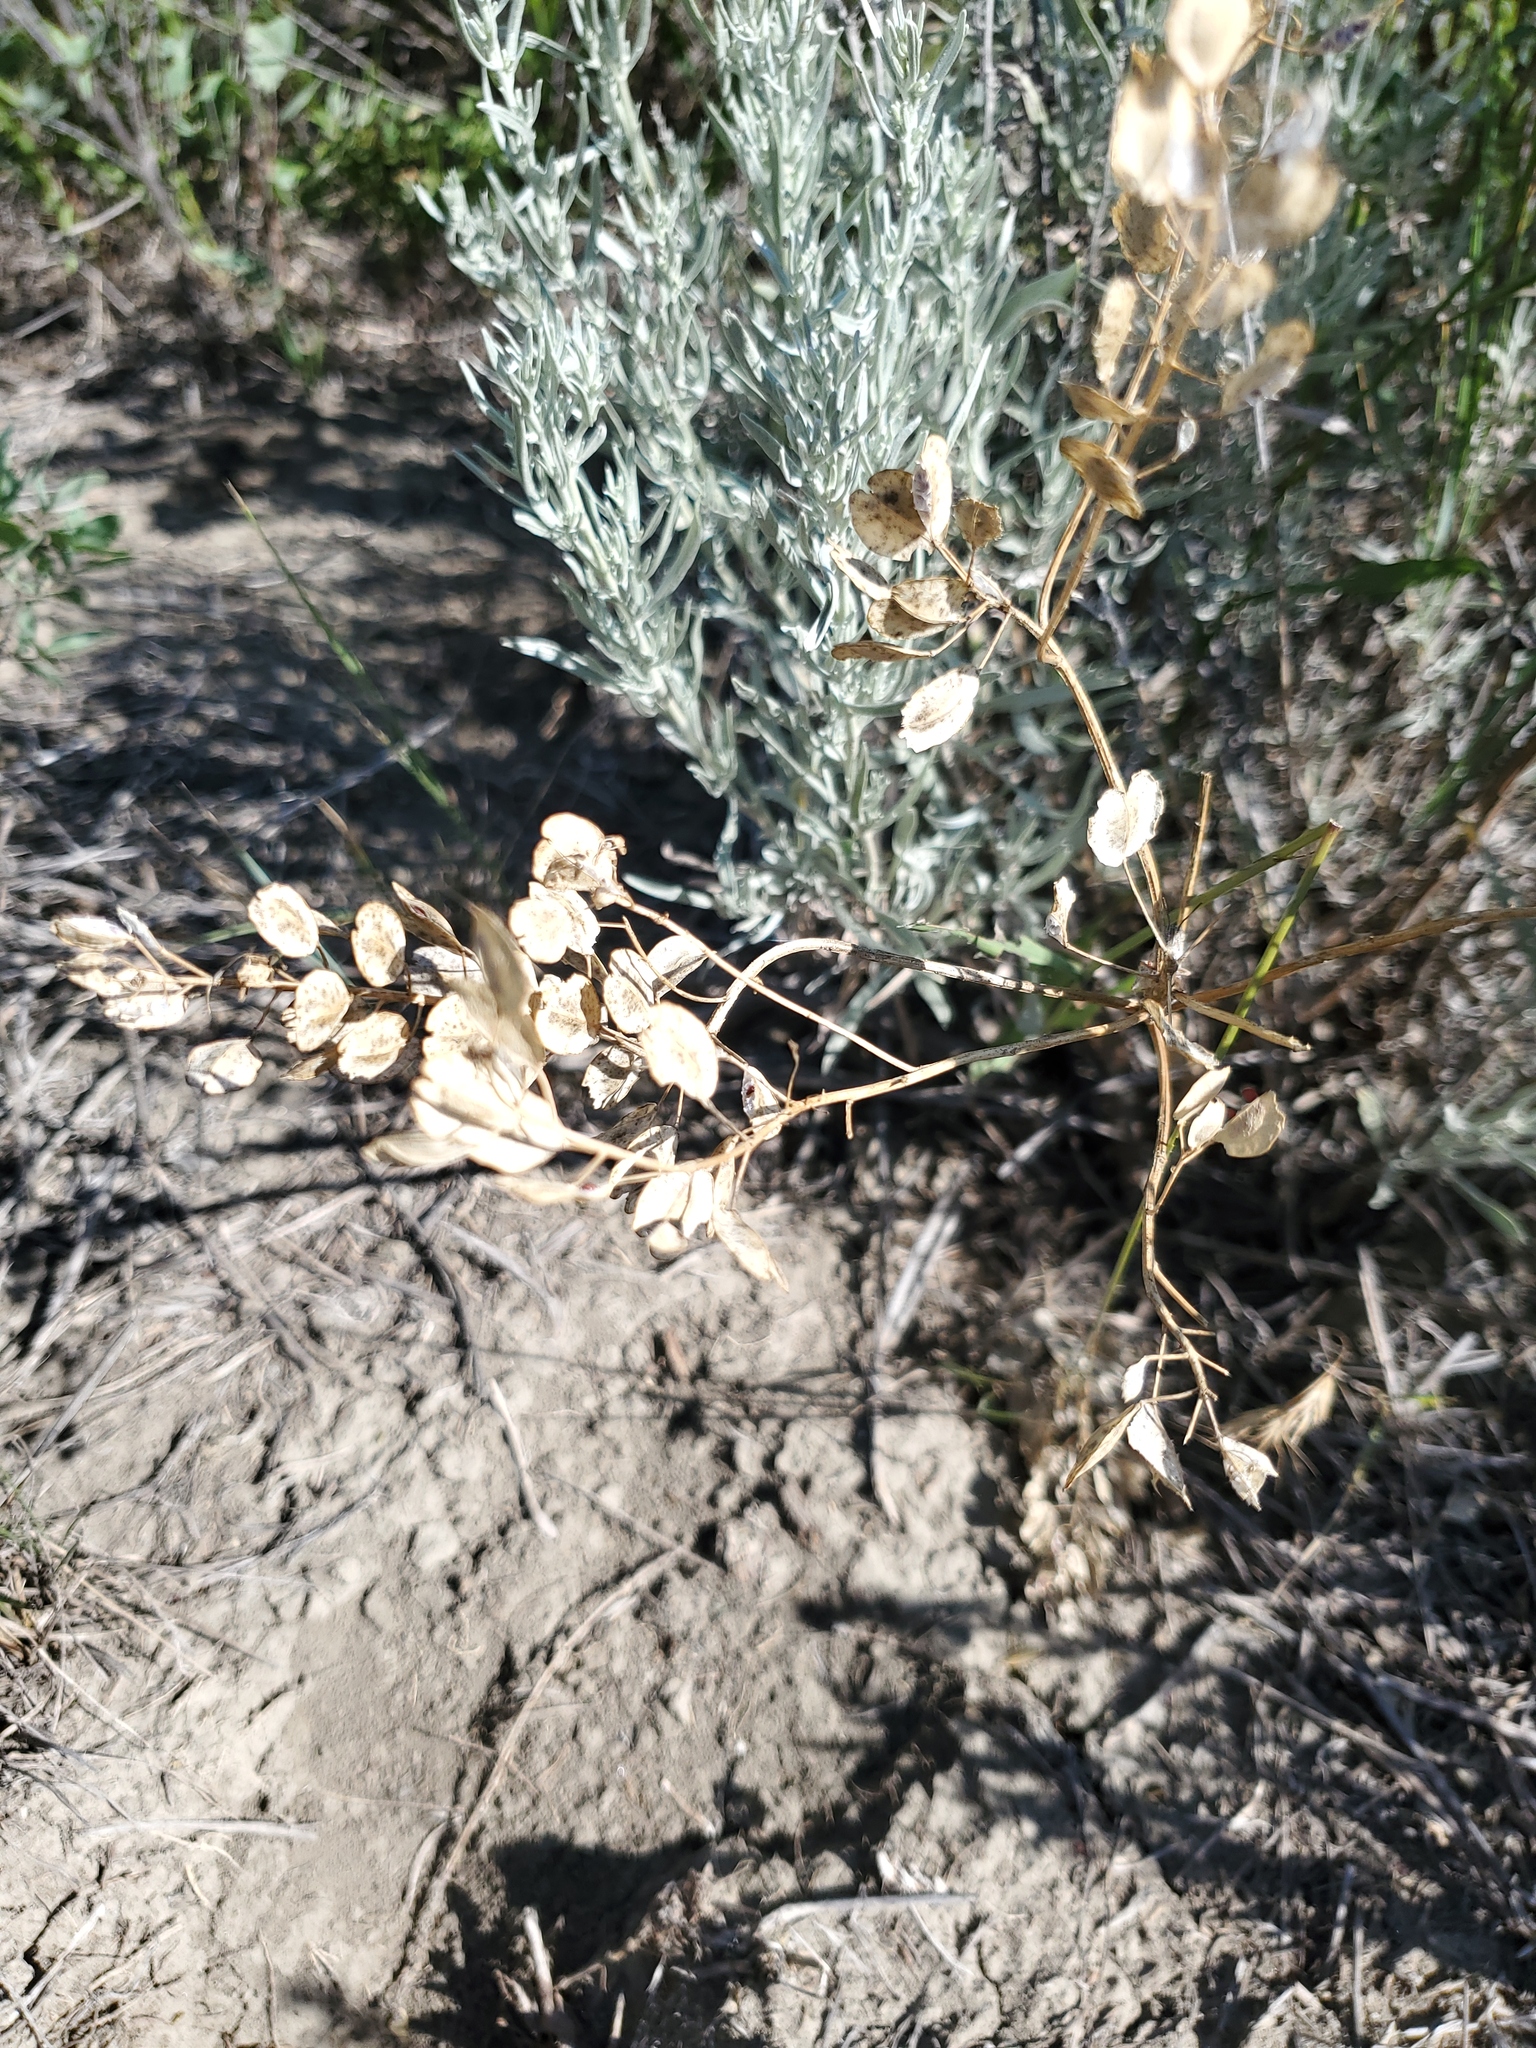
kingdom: Plantae
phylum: Tracheophyta
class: Magnoliopsida
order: Brassicales
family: Brassicaceae
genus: Thlaspi
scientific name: Thlaspi arvense
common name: Field pennycress
